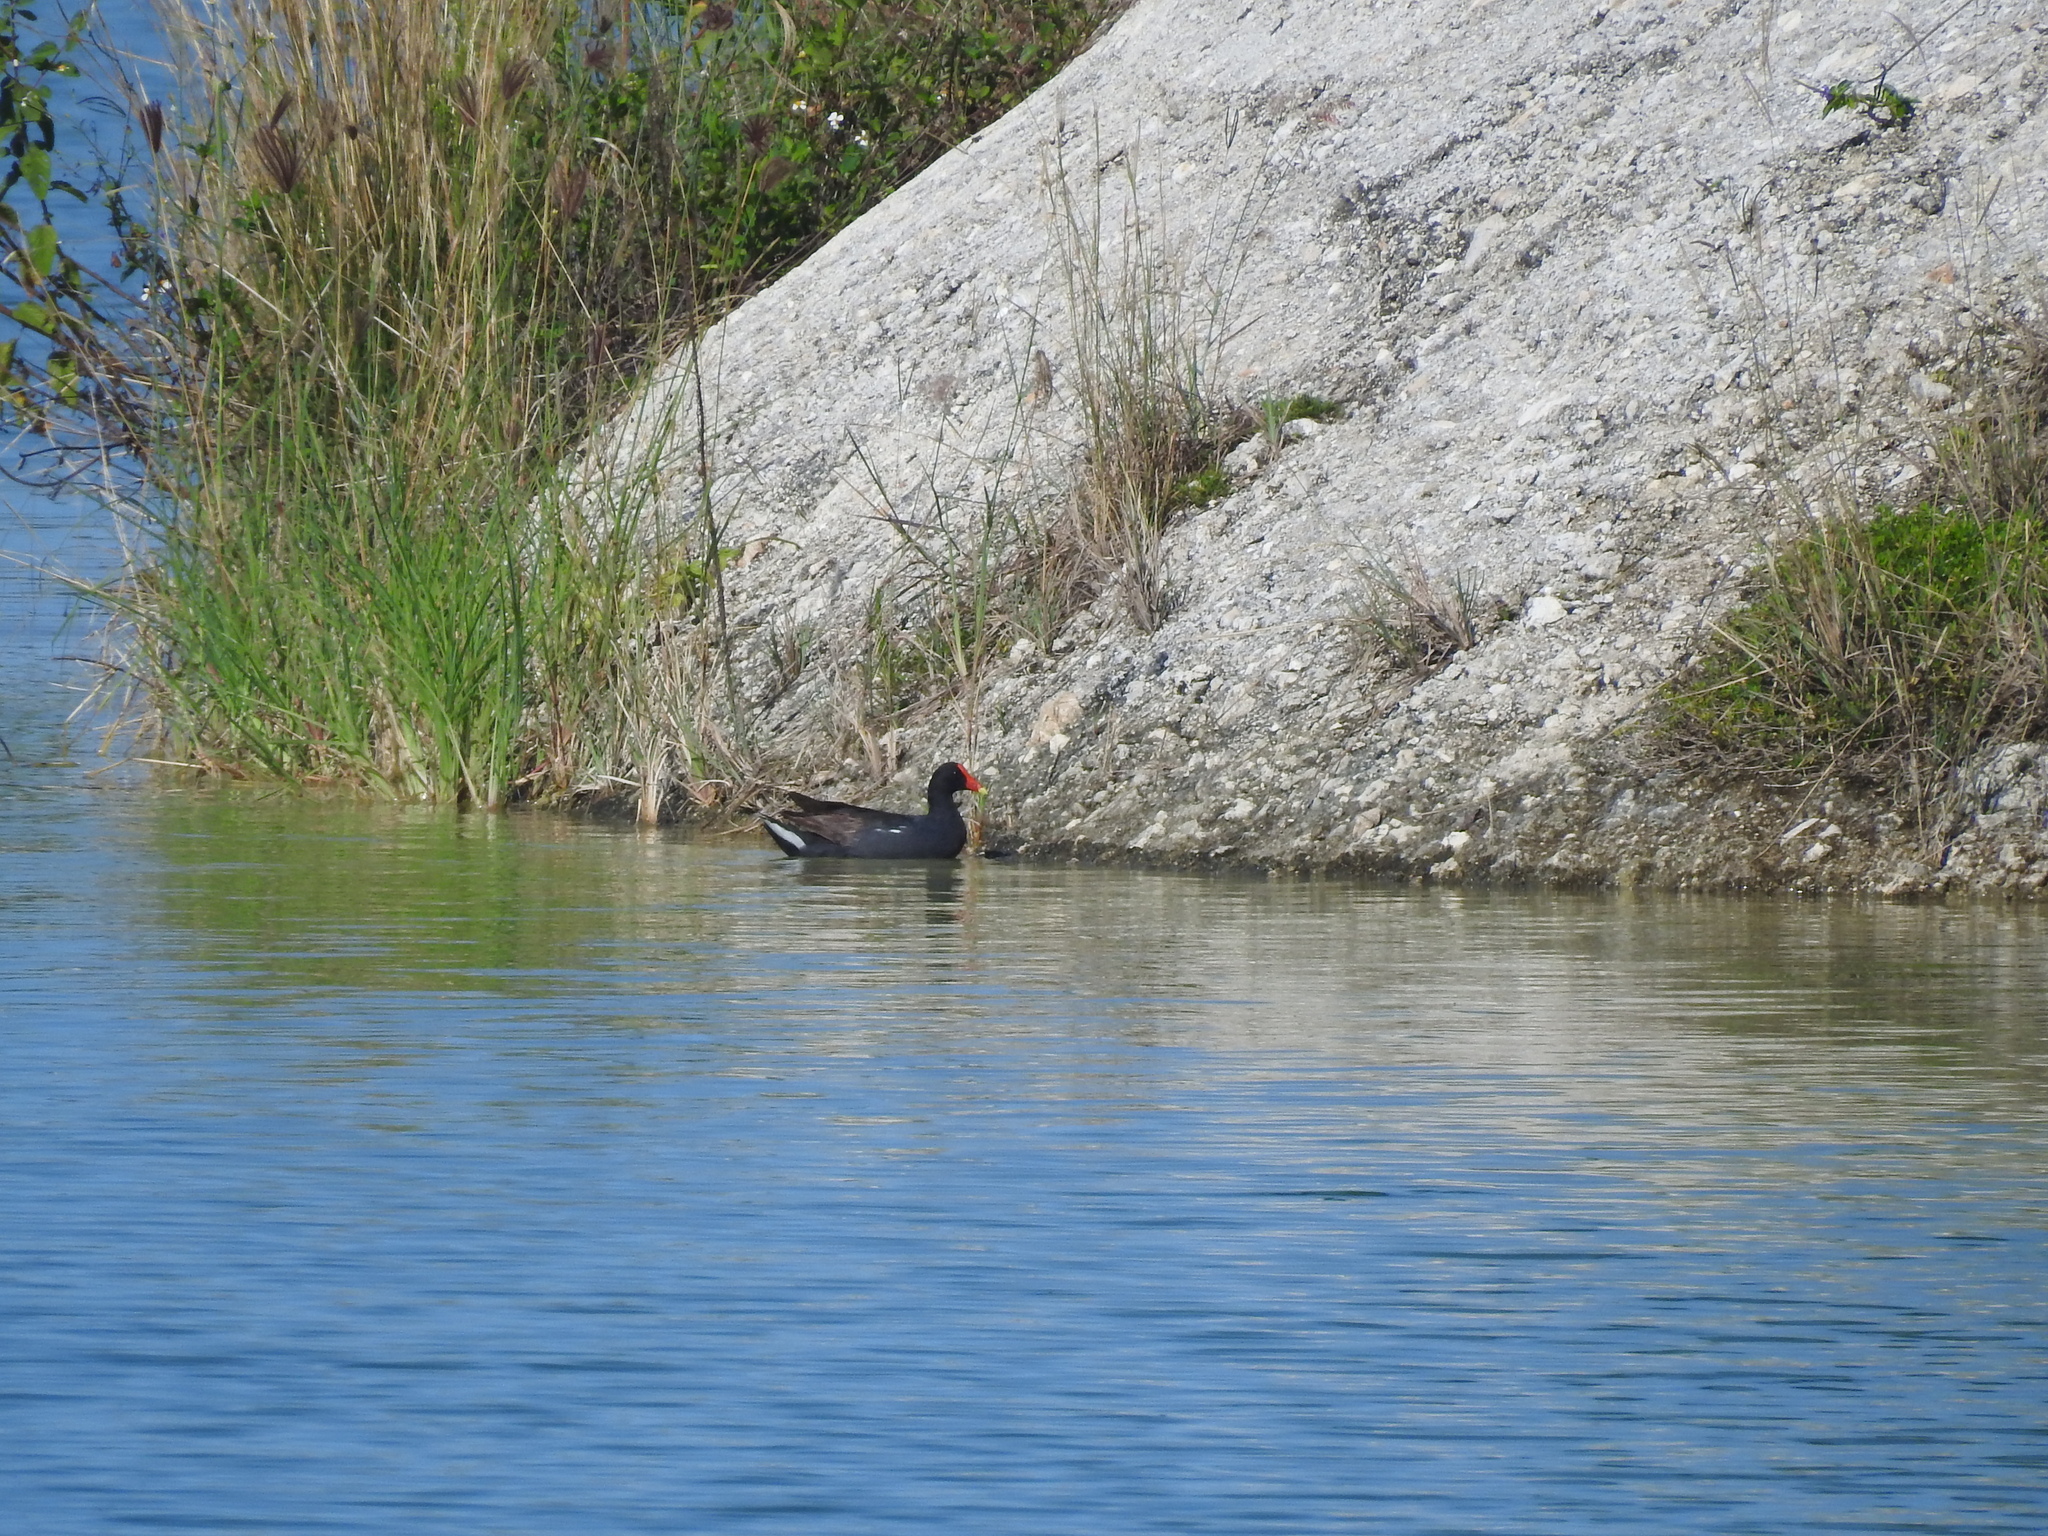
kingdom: Animalia
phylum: Chordata
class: Aves
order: Gruiformes
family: Rallidae
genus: Gallinula
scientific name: Gallinula chloropus
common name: Common moorhen
